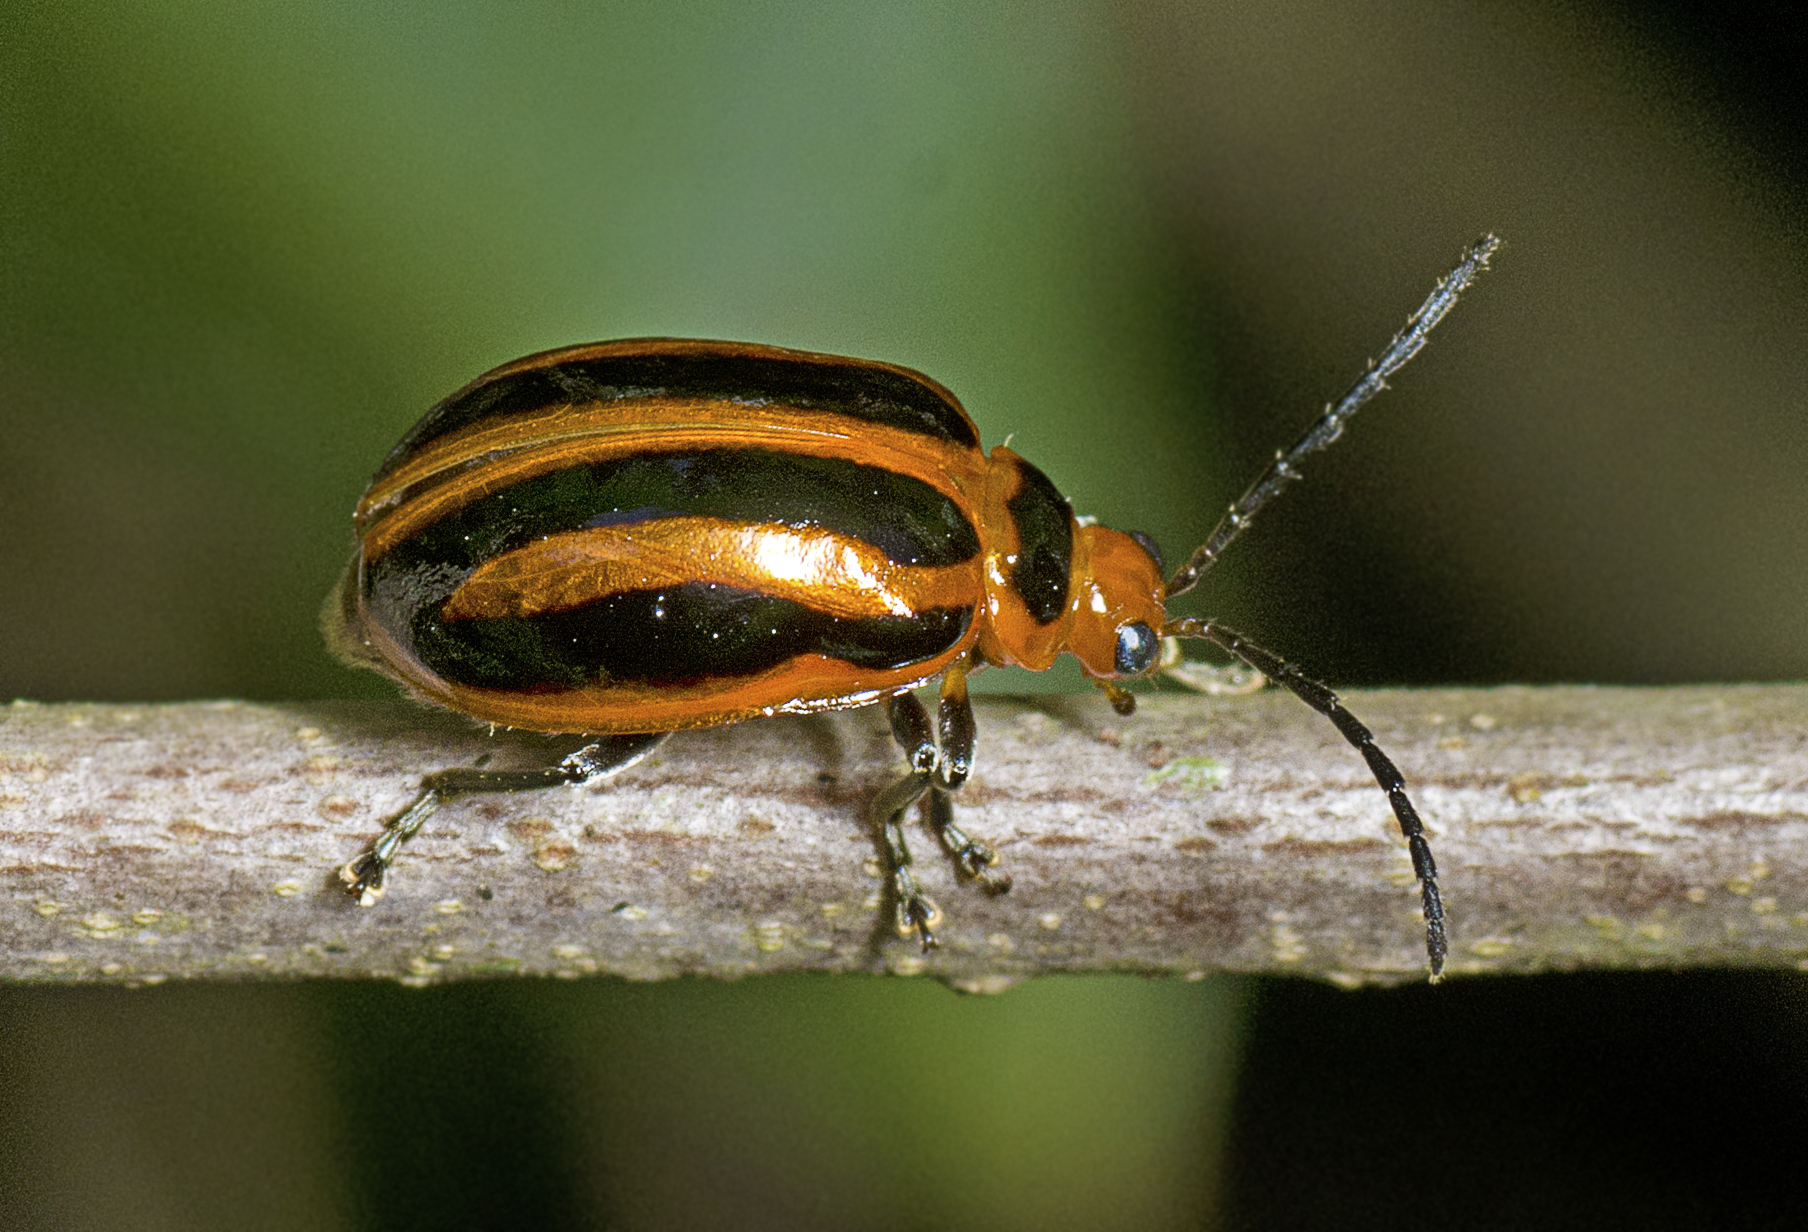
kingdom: Animalia
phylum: Arthropoda
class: Insecta
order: Coleoptera
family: Chrysomelidae
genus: Oides
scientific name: Oides
